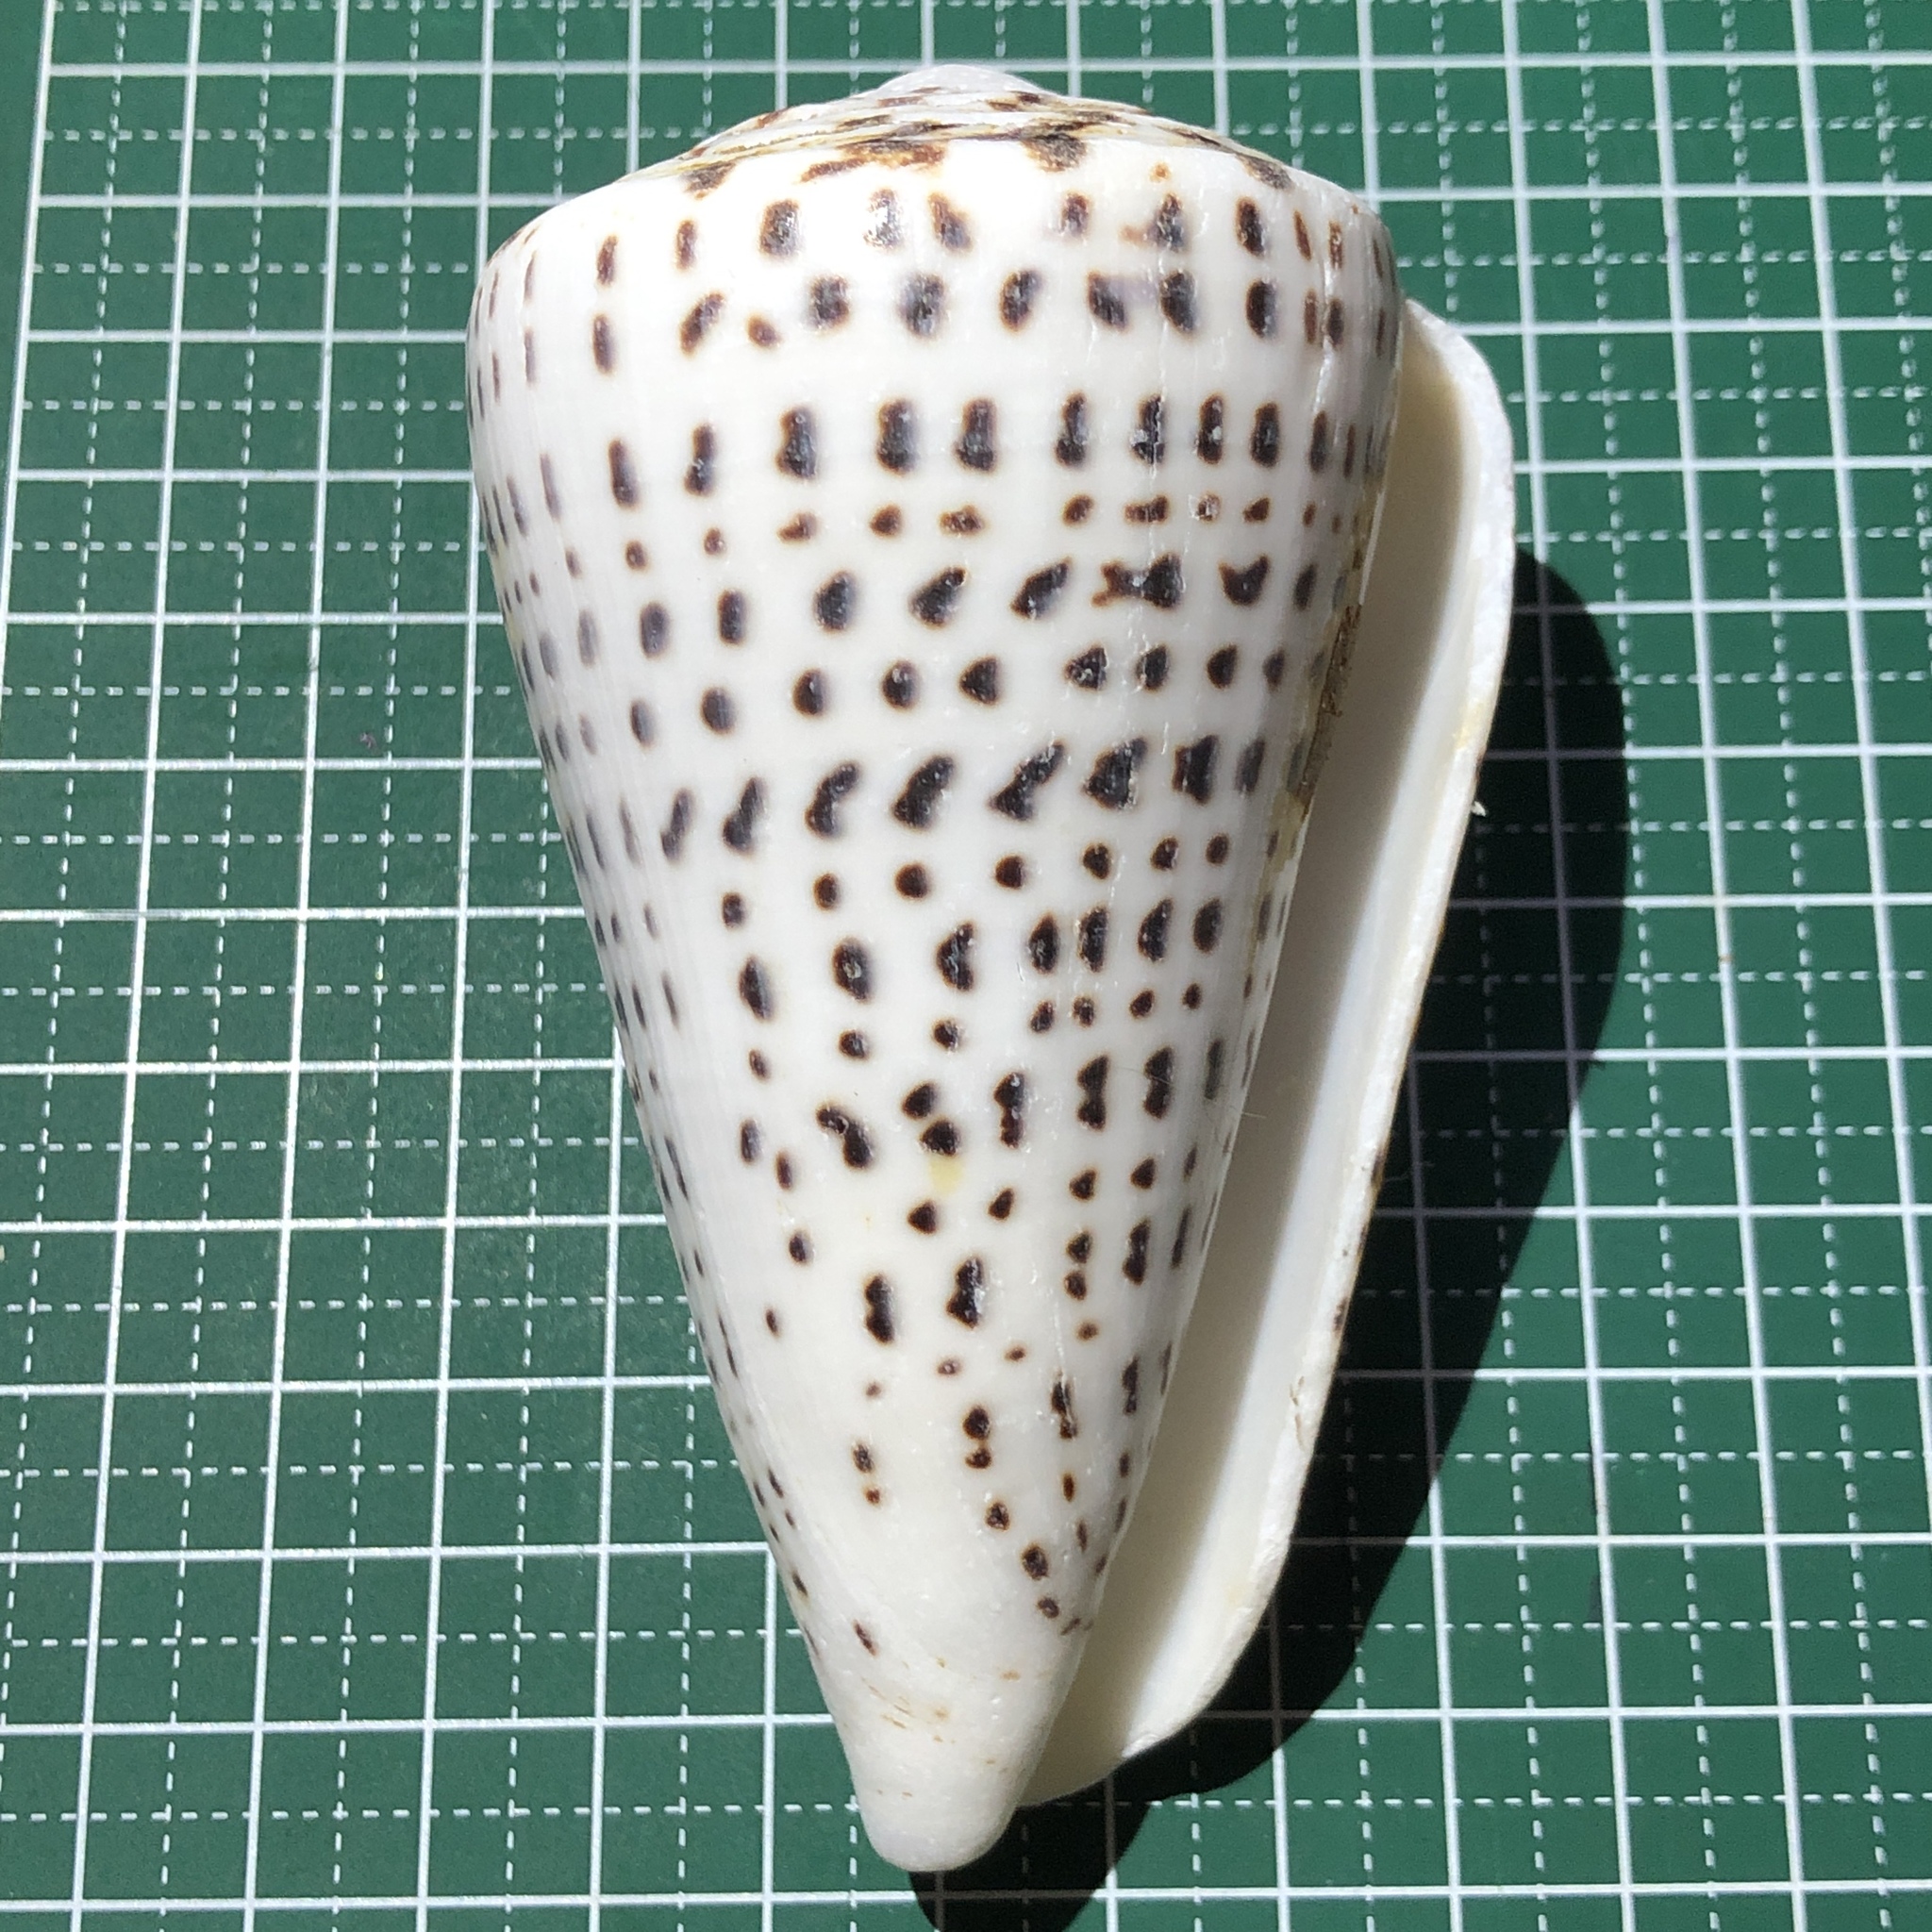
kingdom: Animalia
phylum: Mollusca
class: Gastropoda
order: Neogastropoda
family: Conidae
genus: Conus
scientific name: Conus leopardus
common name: Leopard cone
